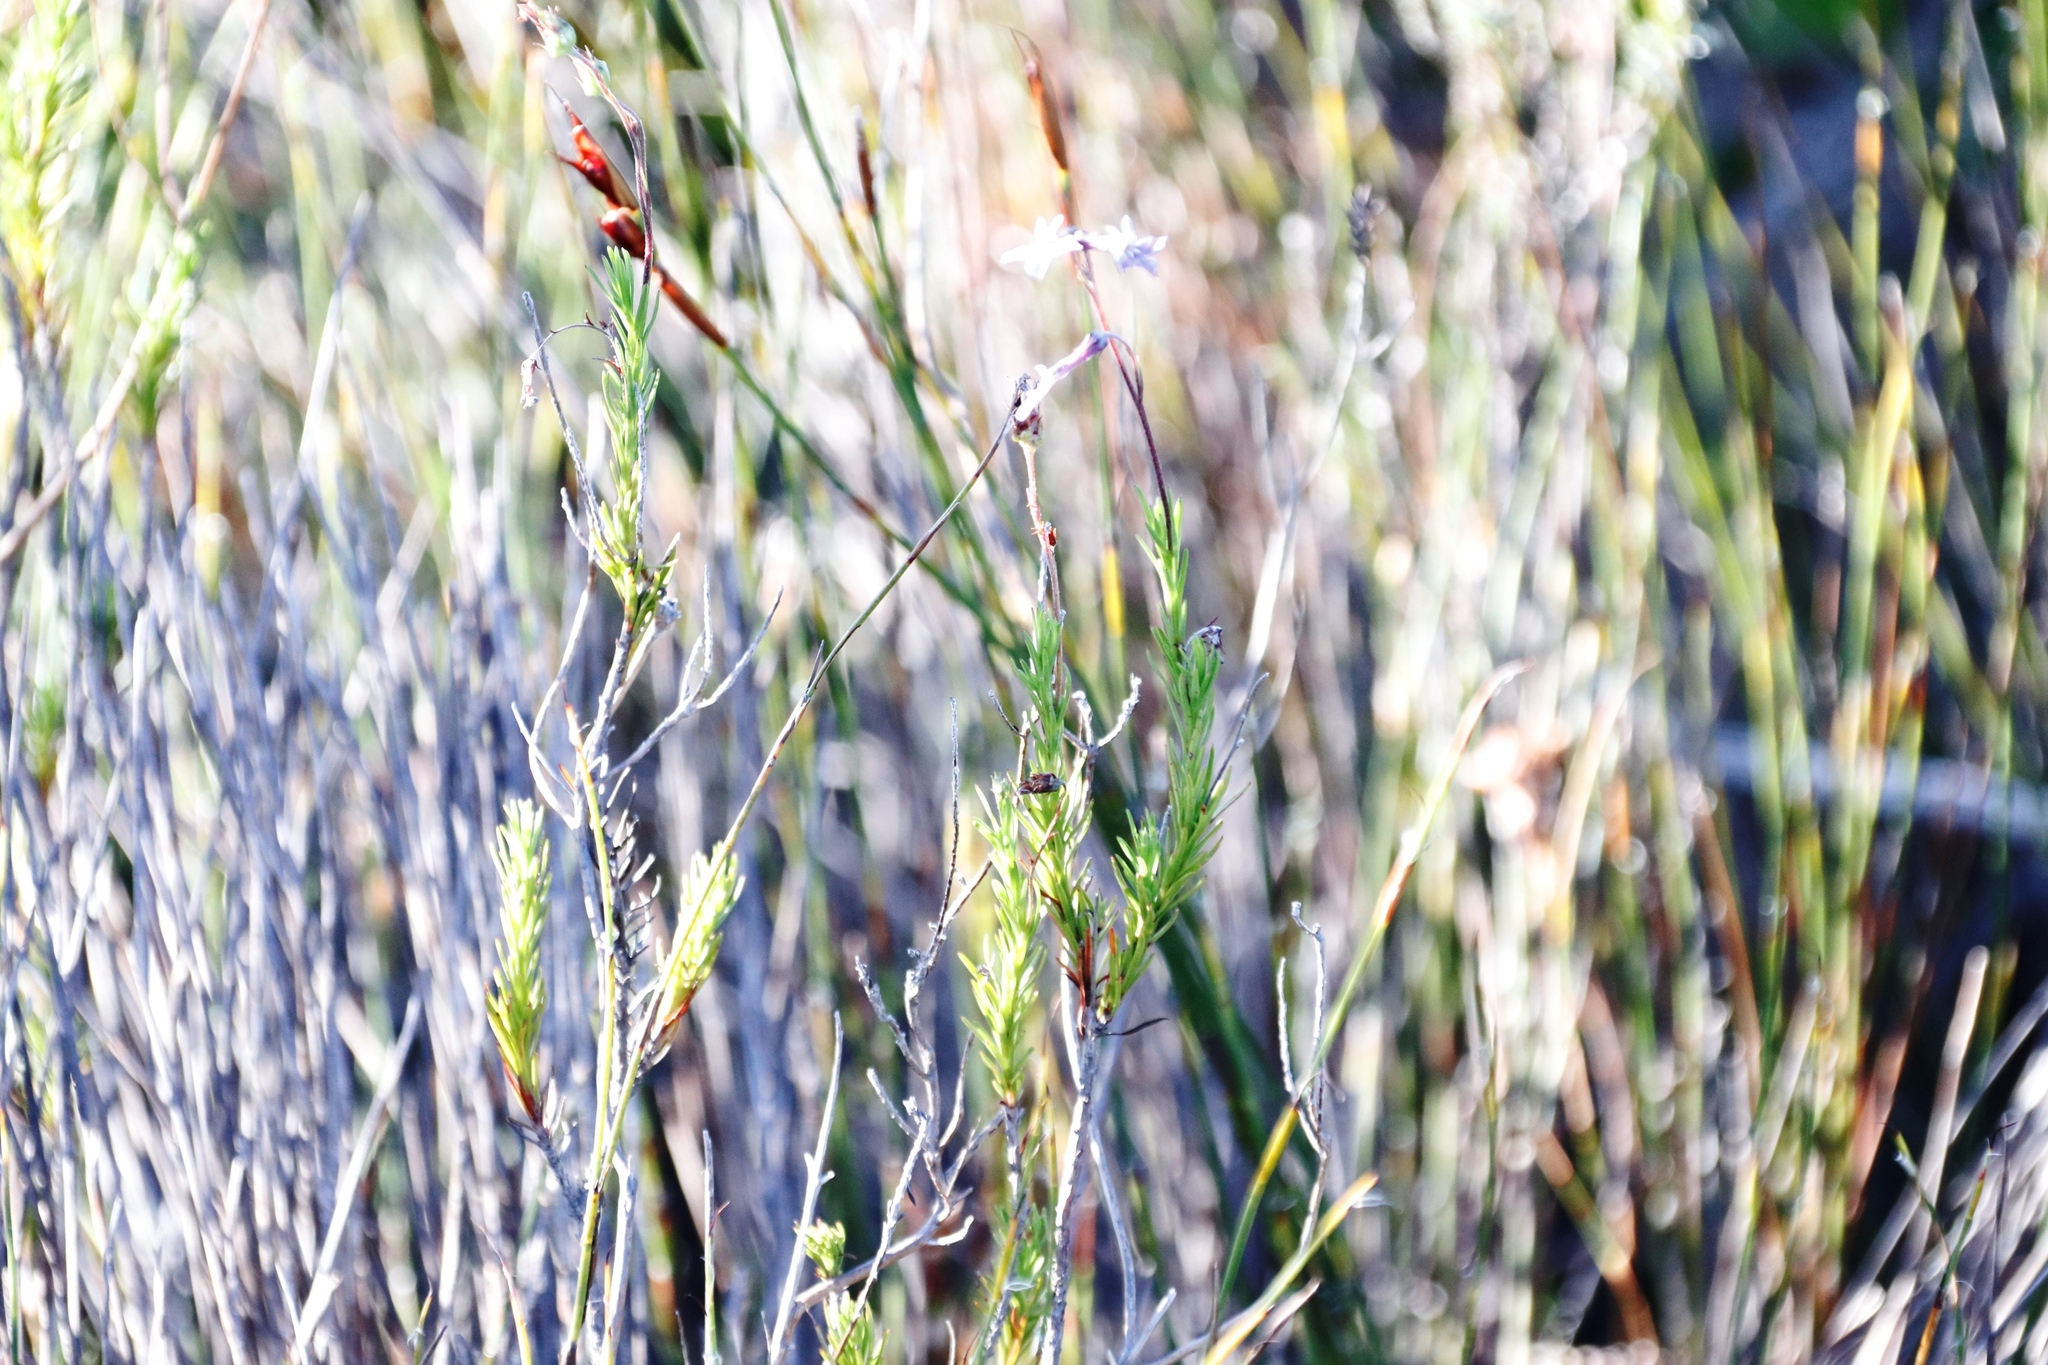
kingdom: Plantae
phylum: Tracheophyta
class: Magnoliopsida
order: Asterales
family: Campanulaceae
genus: Lobelia
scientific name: Lobelia pinifolia
